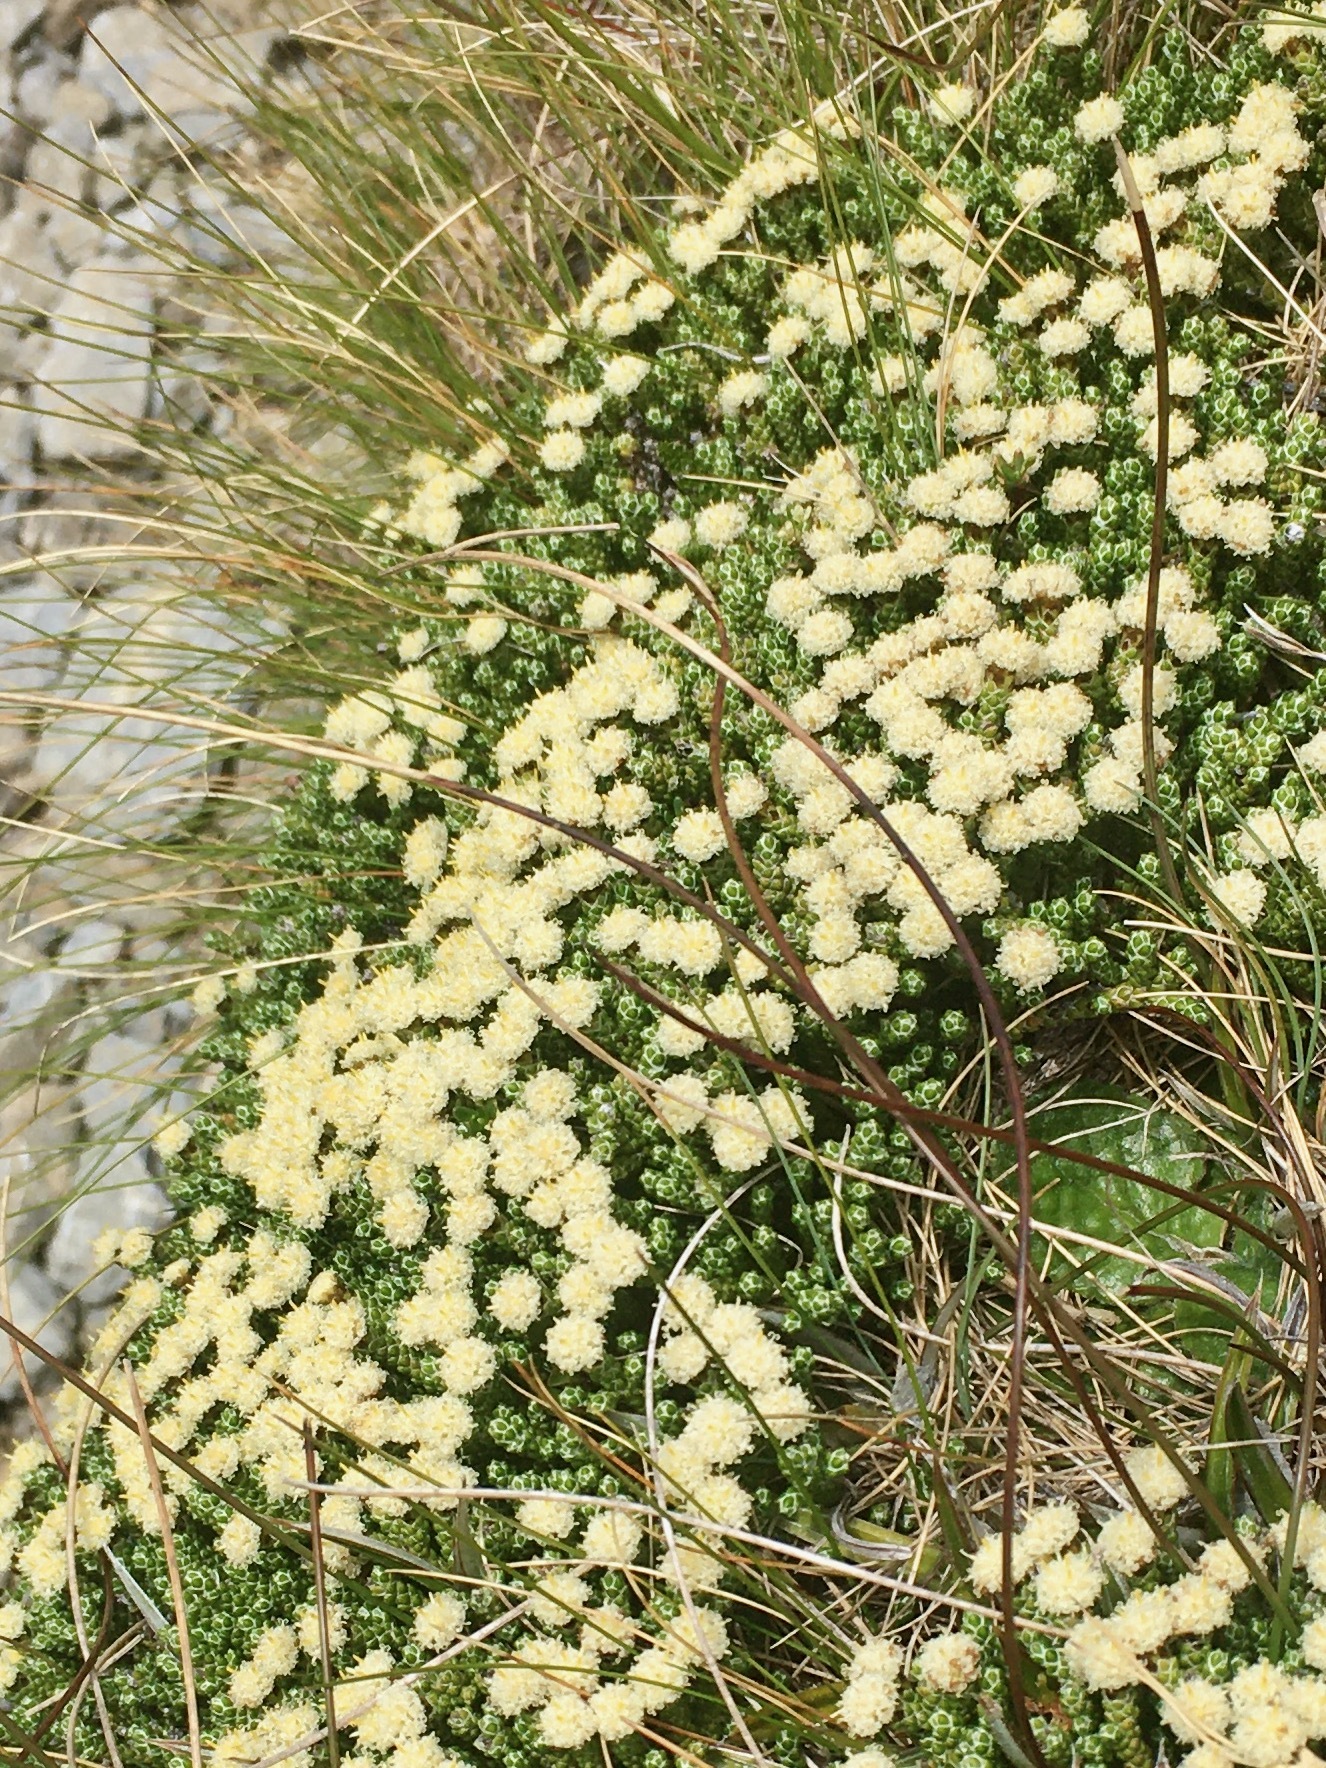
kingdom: Plantae
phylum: Tracheophyta
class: Magnoliopsida
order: Asterales
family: Asteraceae
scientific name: Asteraceae
